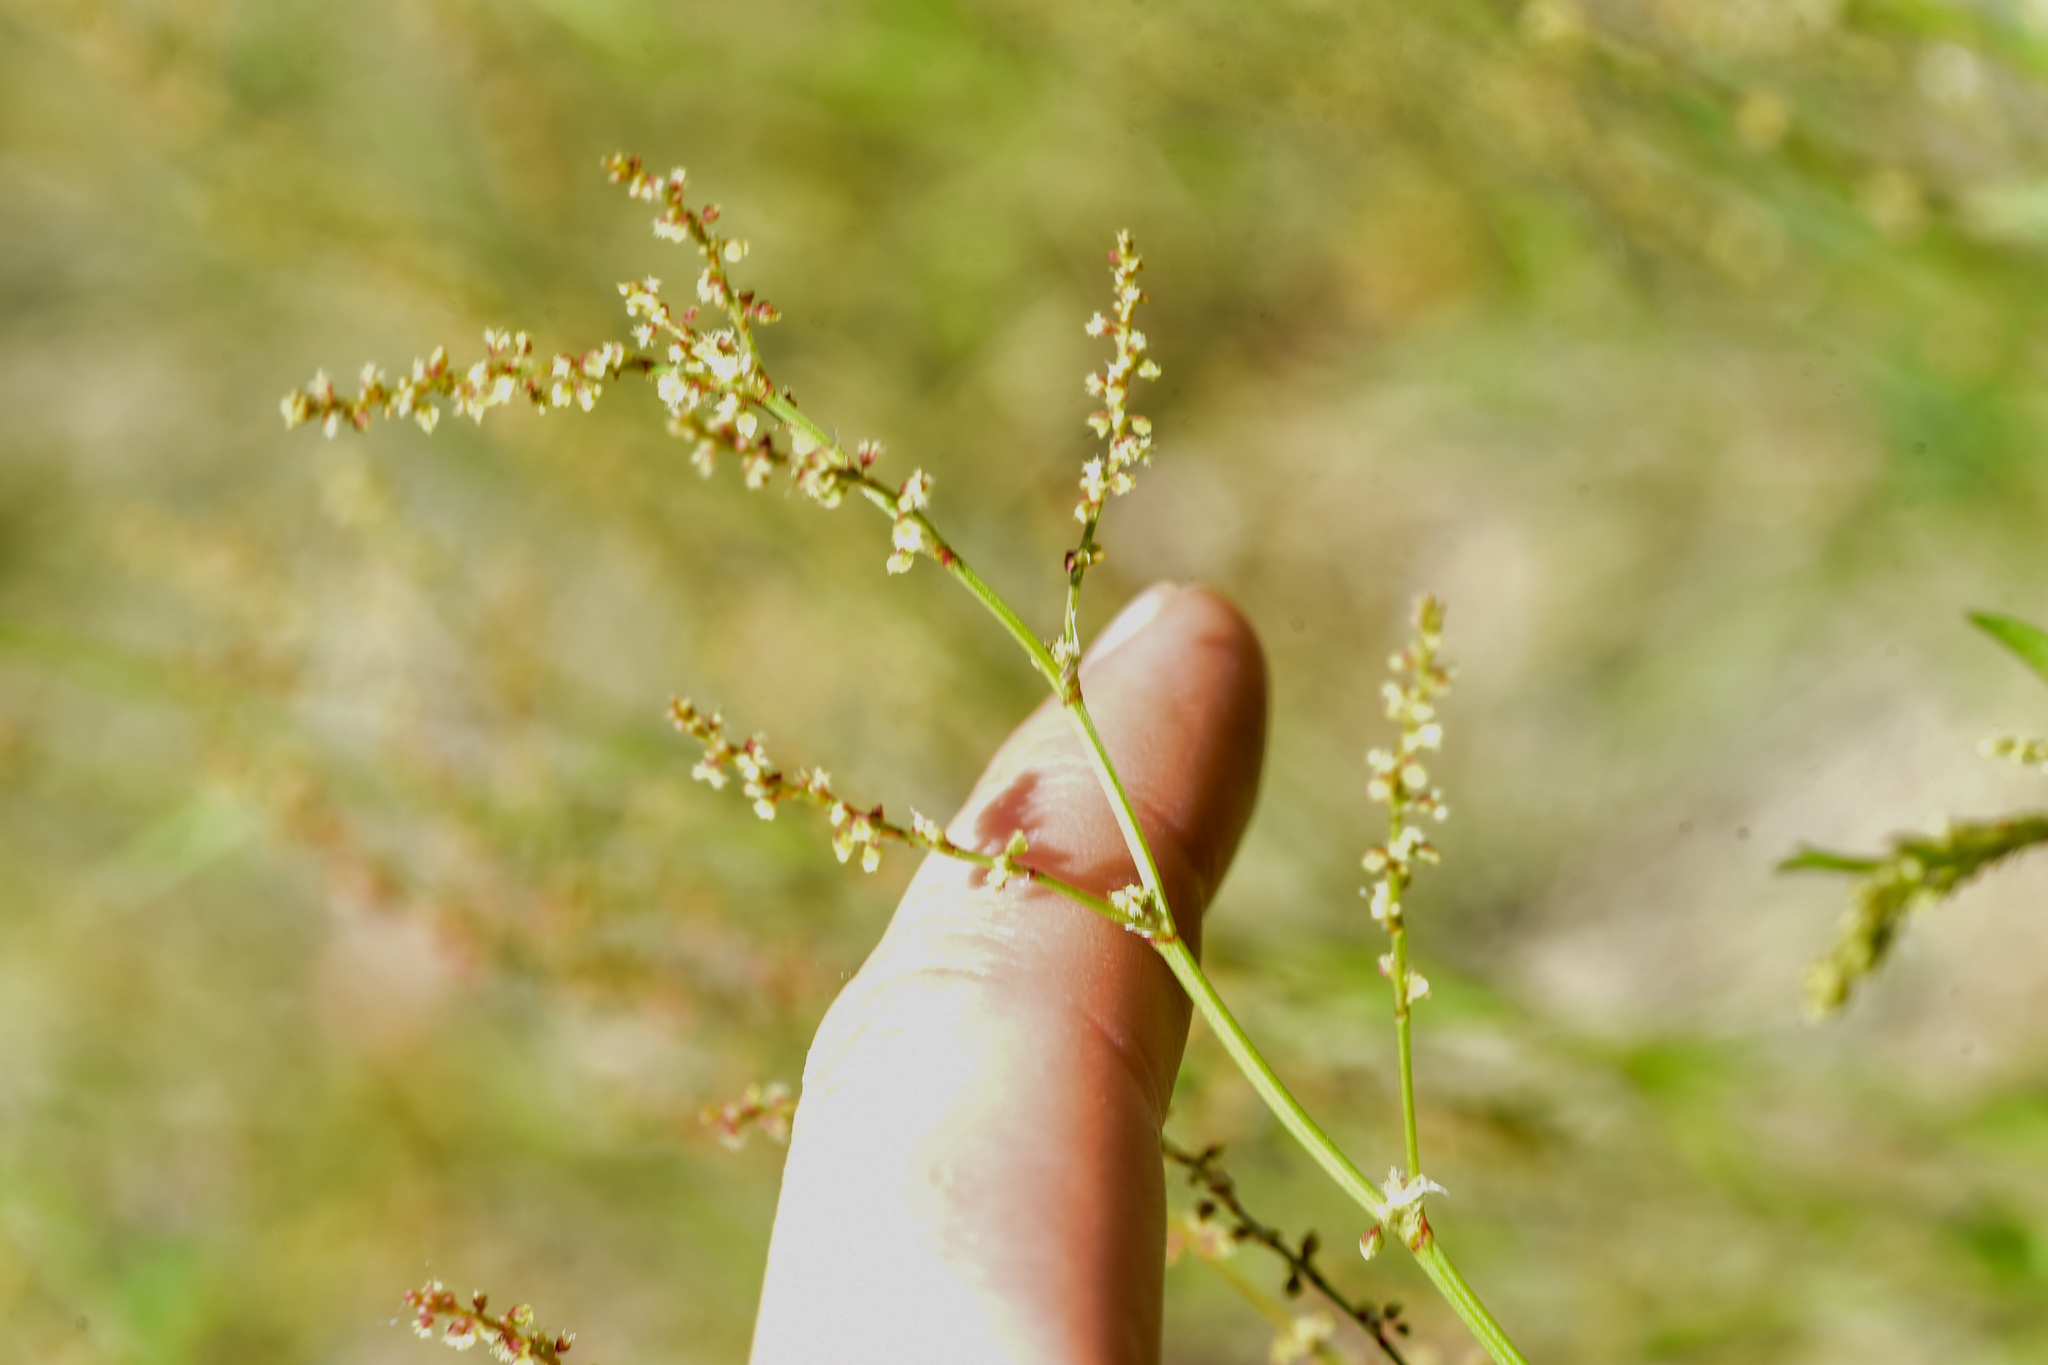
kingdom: Plantae
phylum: Tracheophyta
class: Magnoliopsida
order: Caryophyllales
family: Polygonaceae
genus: Rumex
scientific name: Rumex acetosella
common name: Common sheep sorrel
